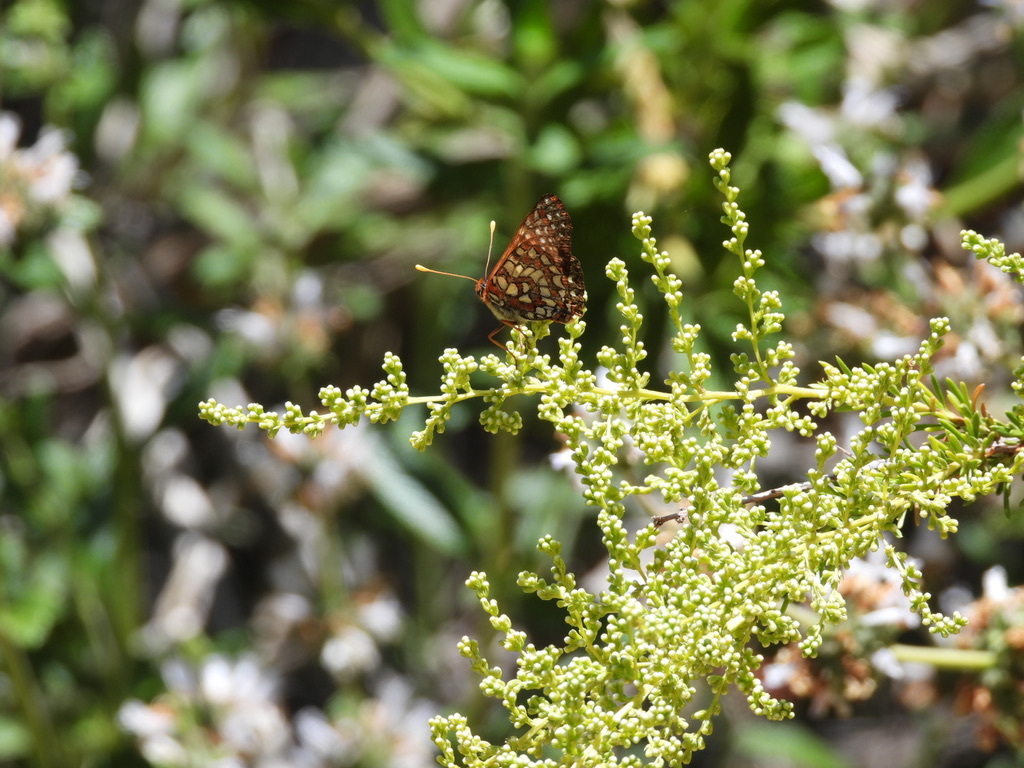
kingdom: Animalia
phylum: Arthropoda
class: Insecta
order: Lepidoptera
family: Nymphalidae
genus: Occidryas
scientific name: Occidryas chalcedona
